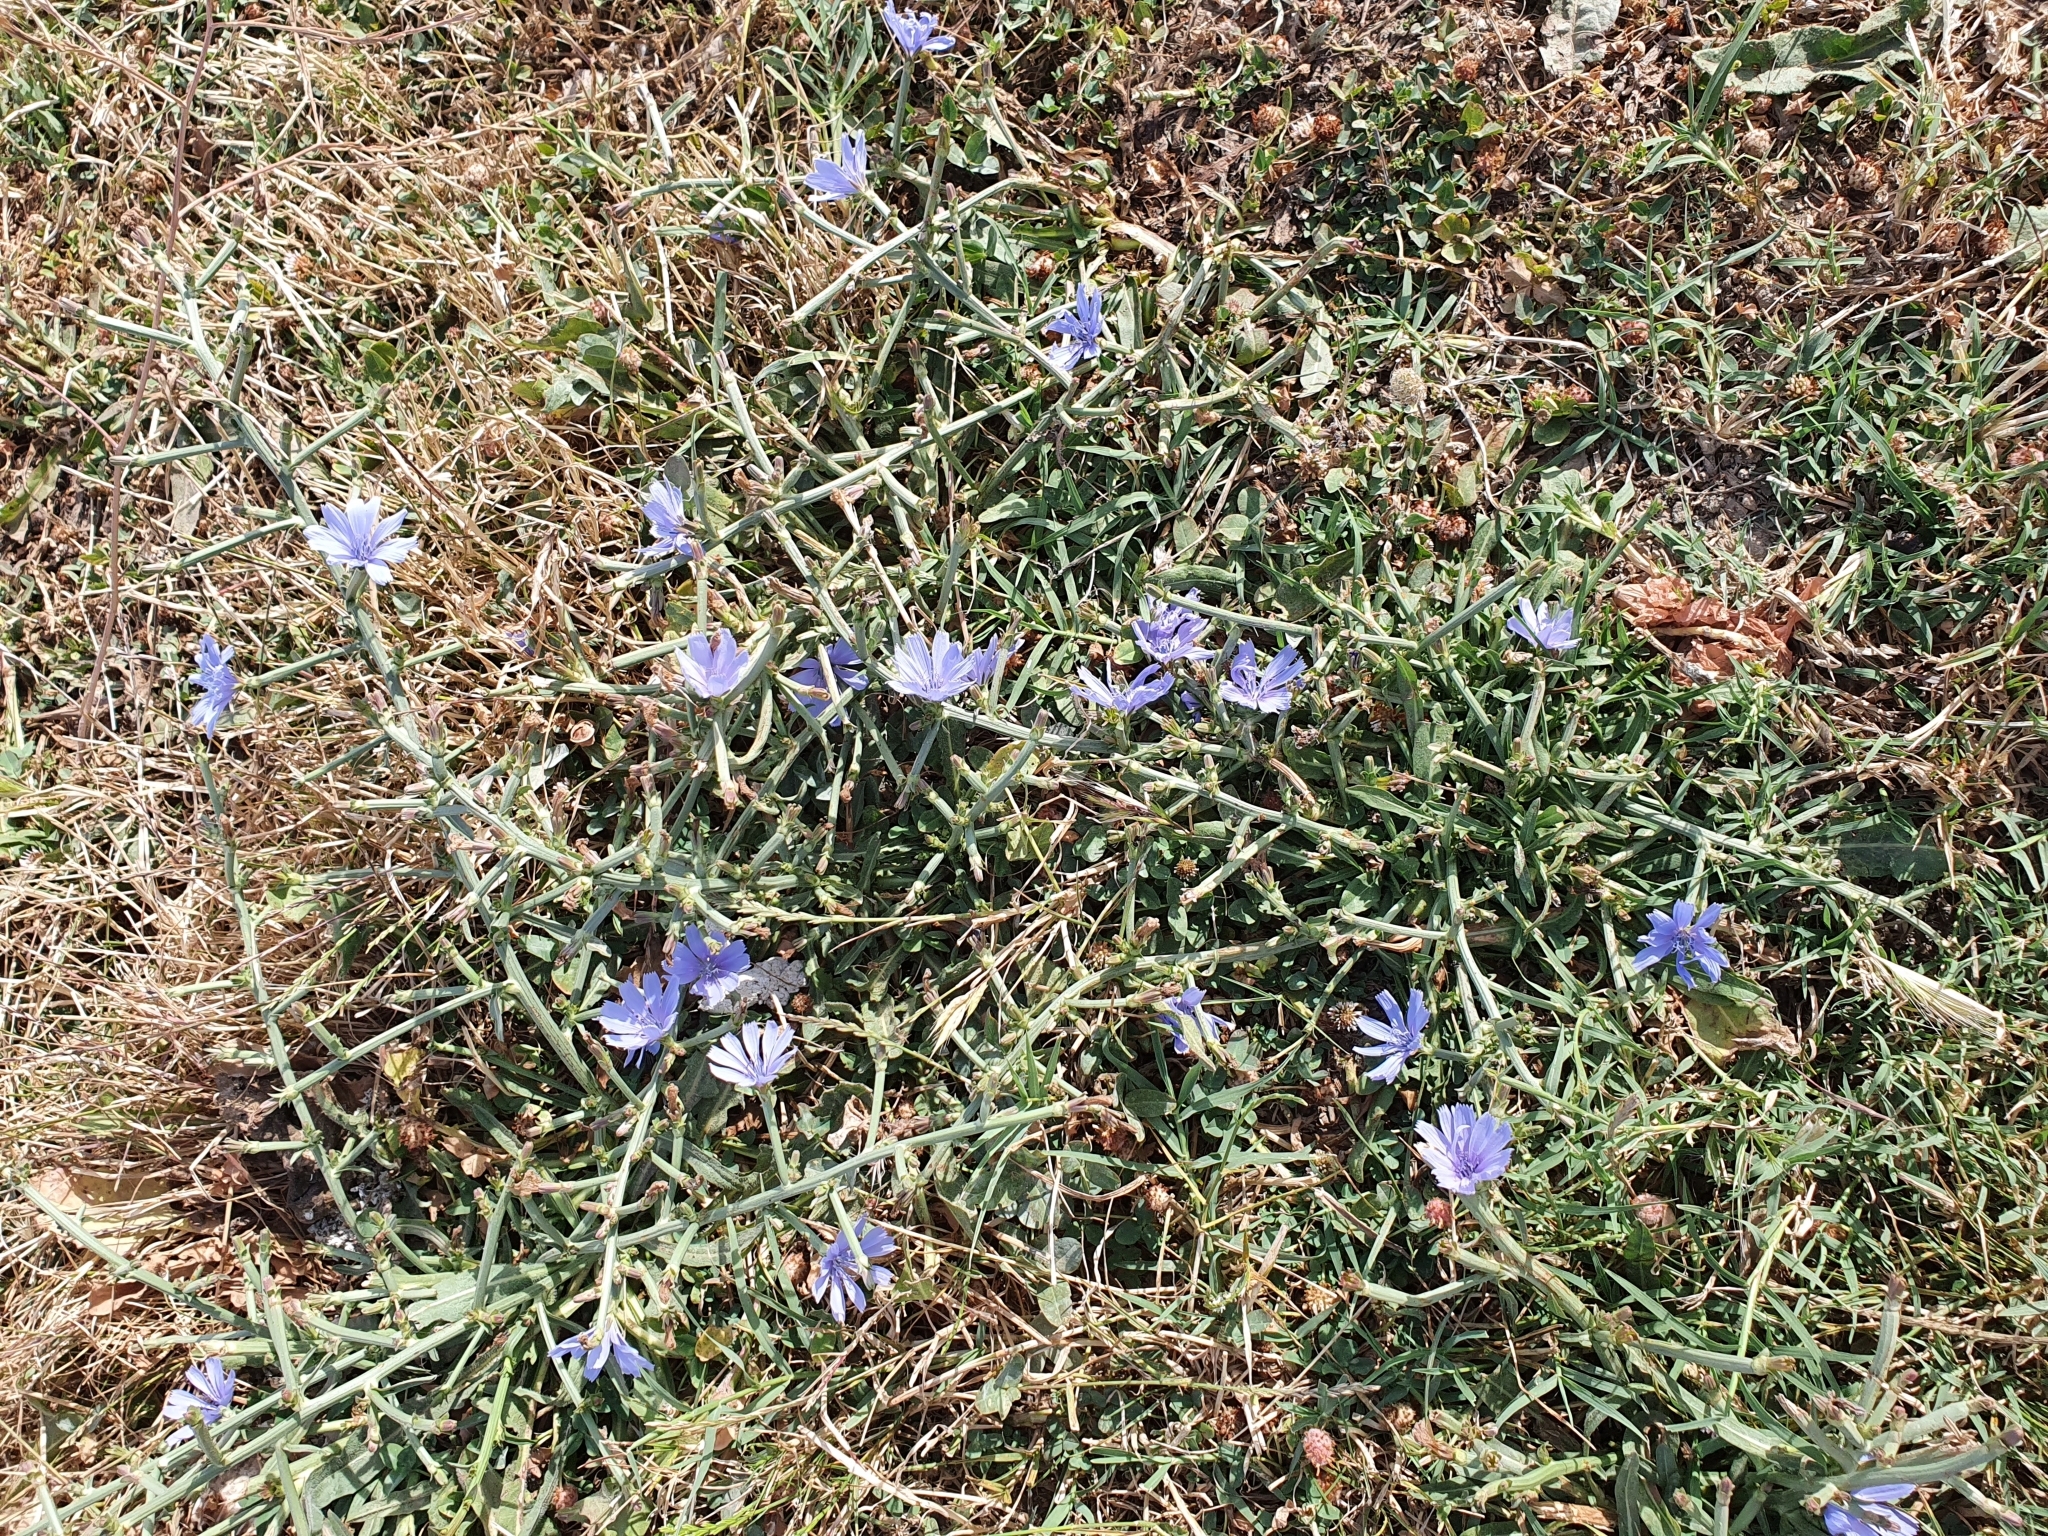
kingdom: Plantae
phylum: Tracheophyta
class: Magnoliopsida
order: Asterales
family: Asteraceae
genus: Cichorium
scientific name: Cichorium intybus
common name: Chicory
